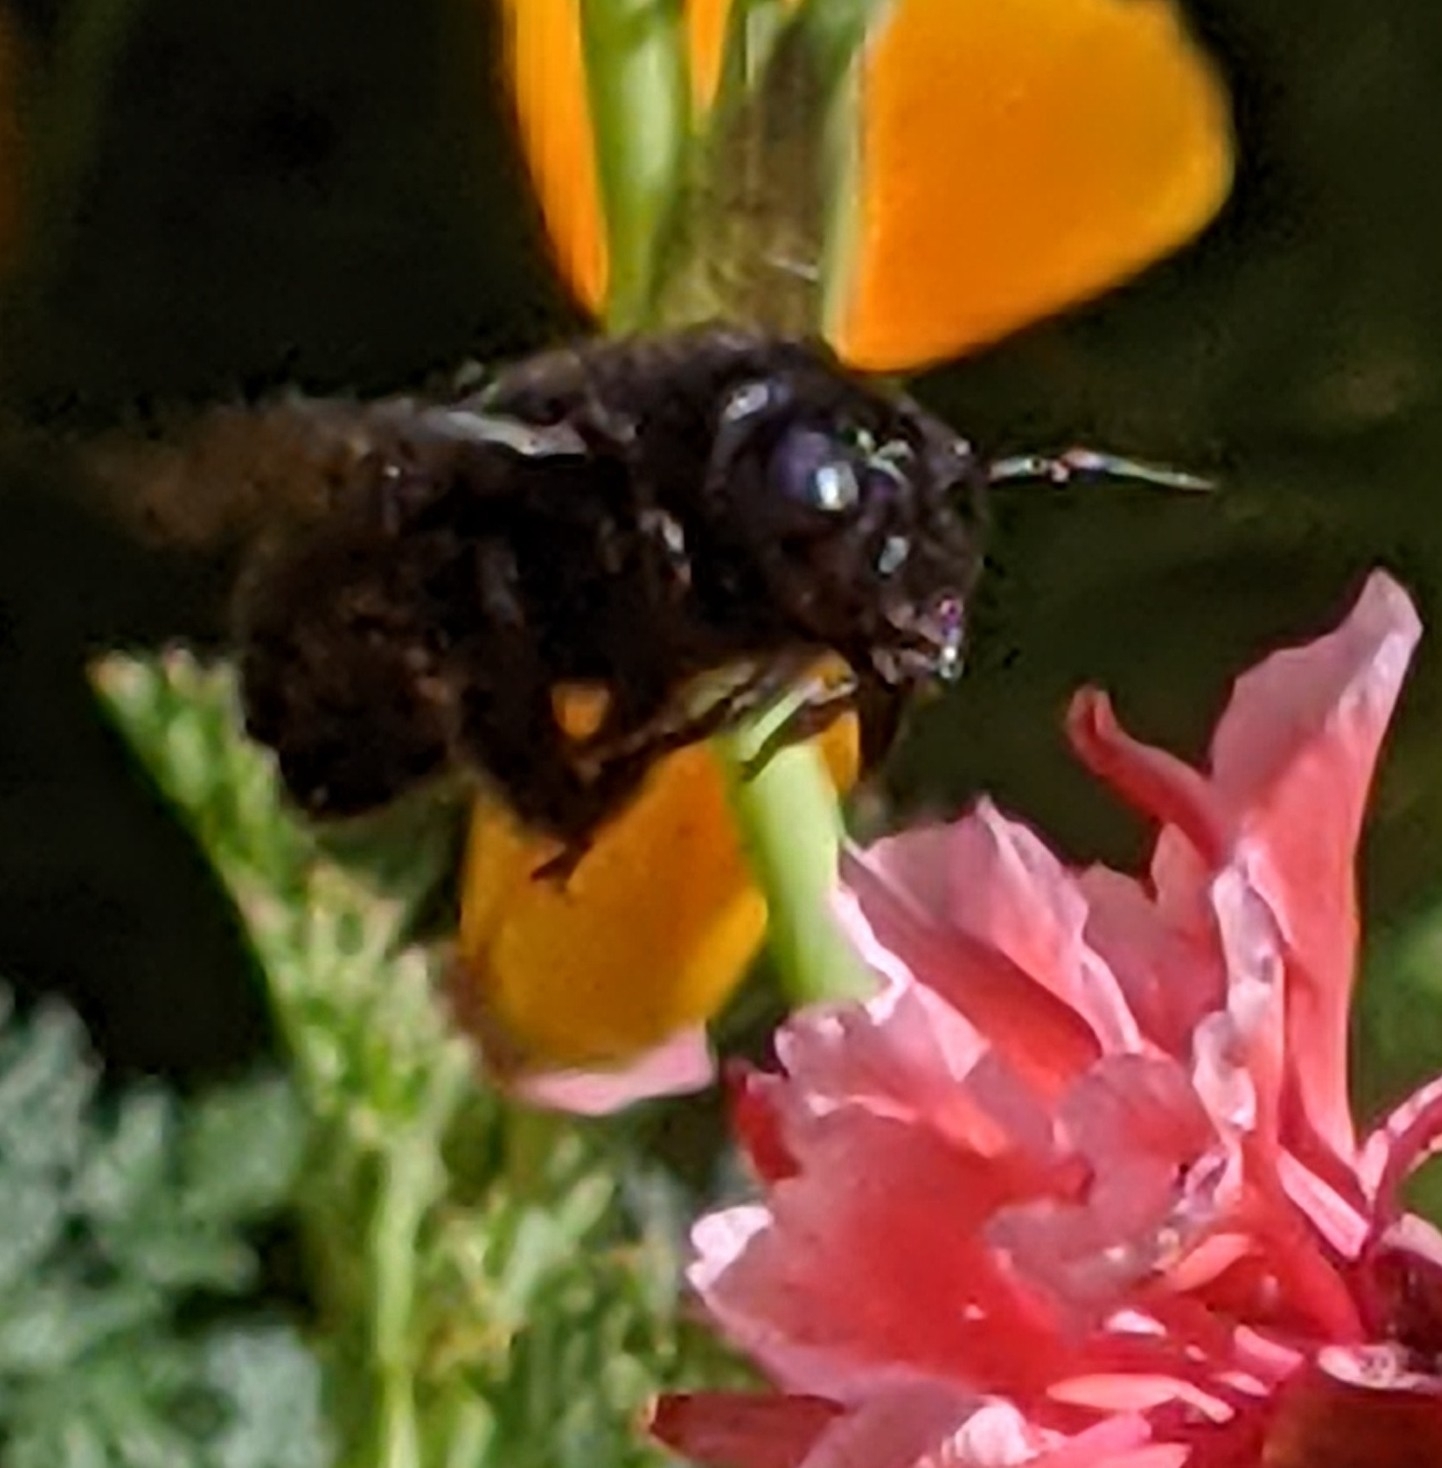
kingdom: Animalia
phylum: Arthropoda
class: Insecta
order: Hymenoptera
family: Apidae
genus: Xylocopa
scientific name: Xylocopa tabaniformis
